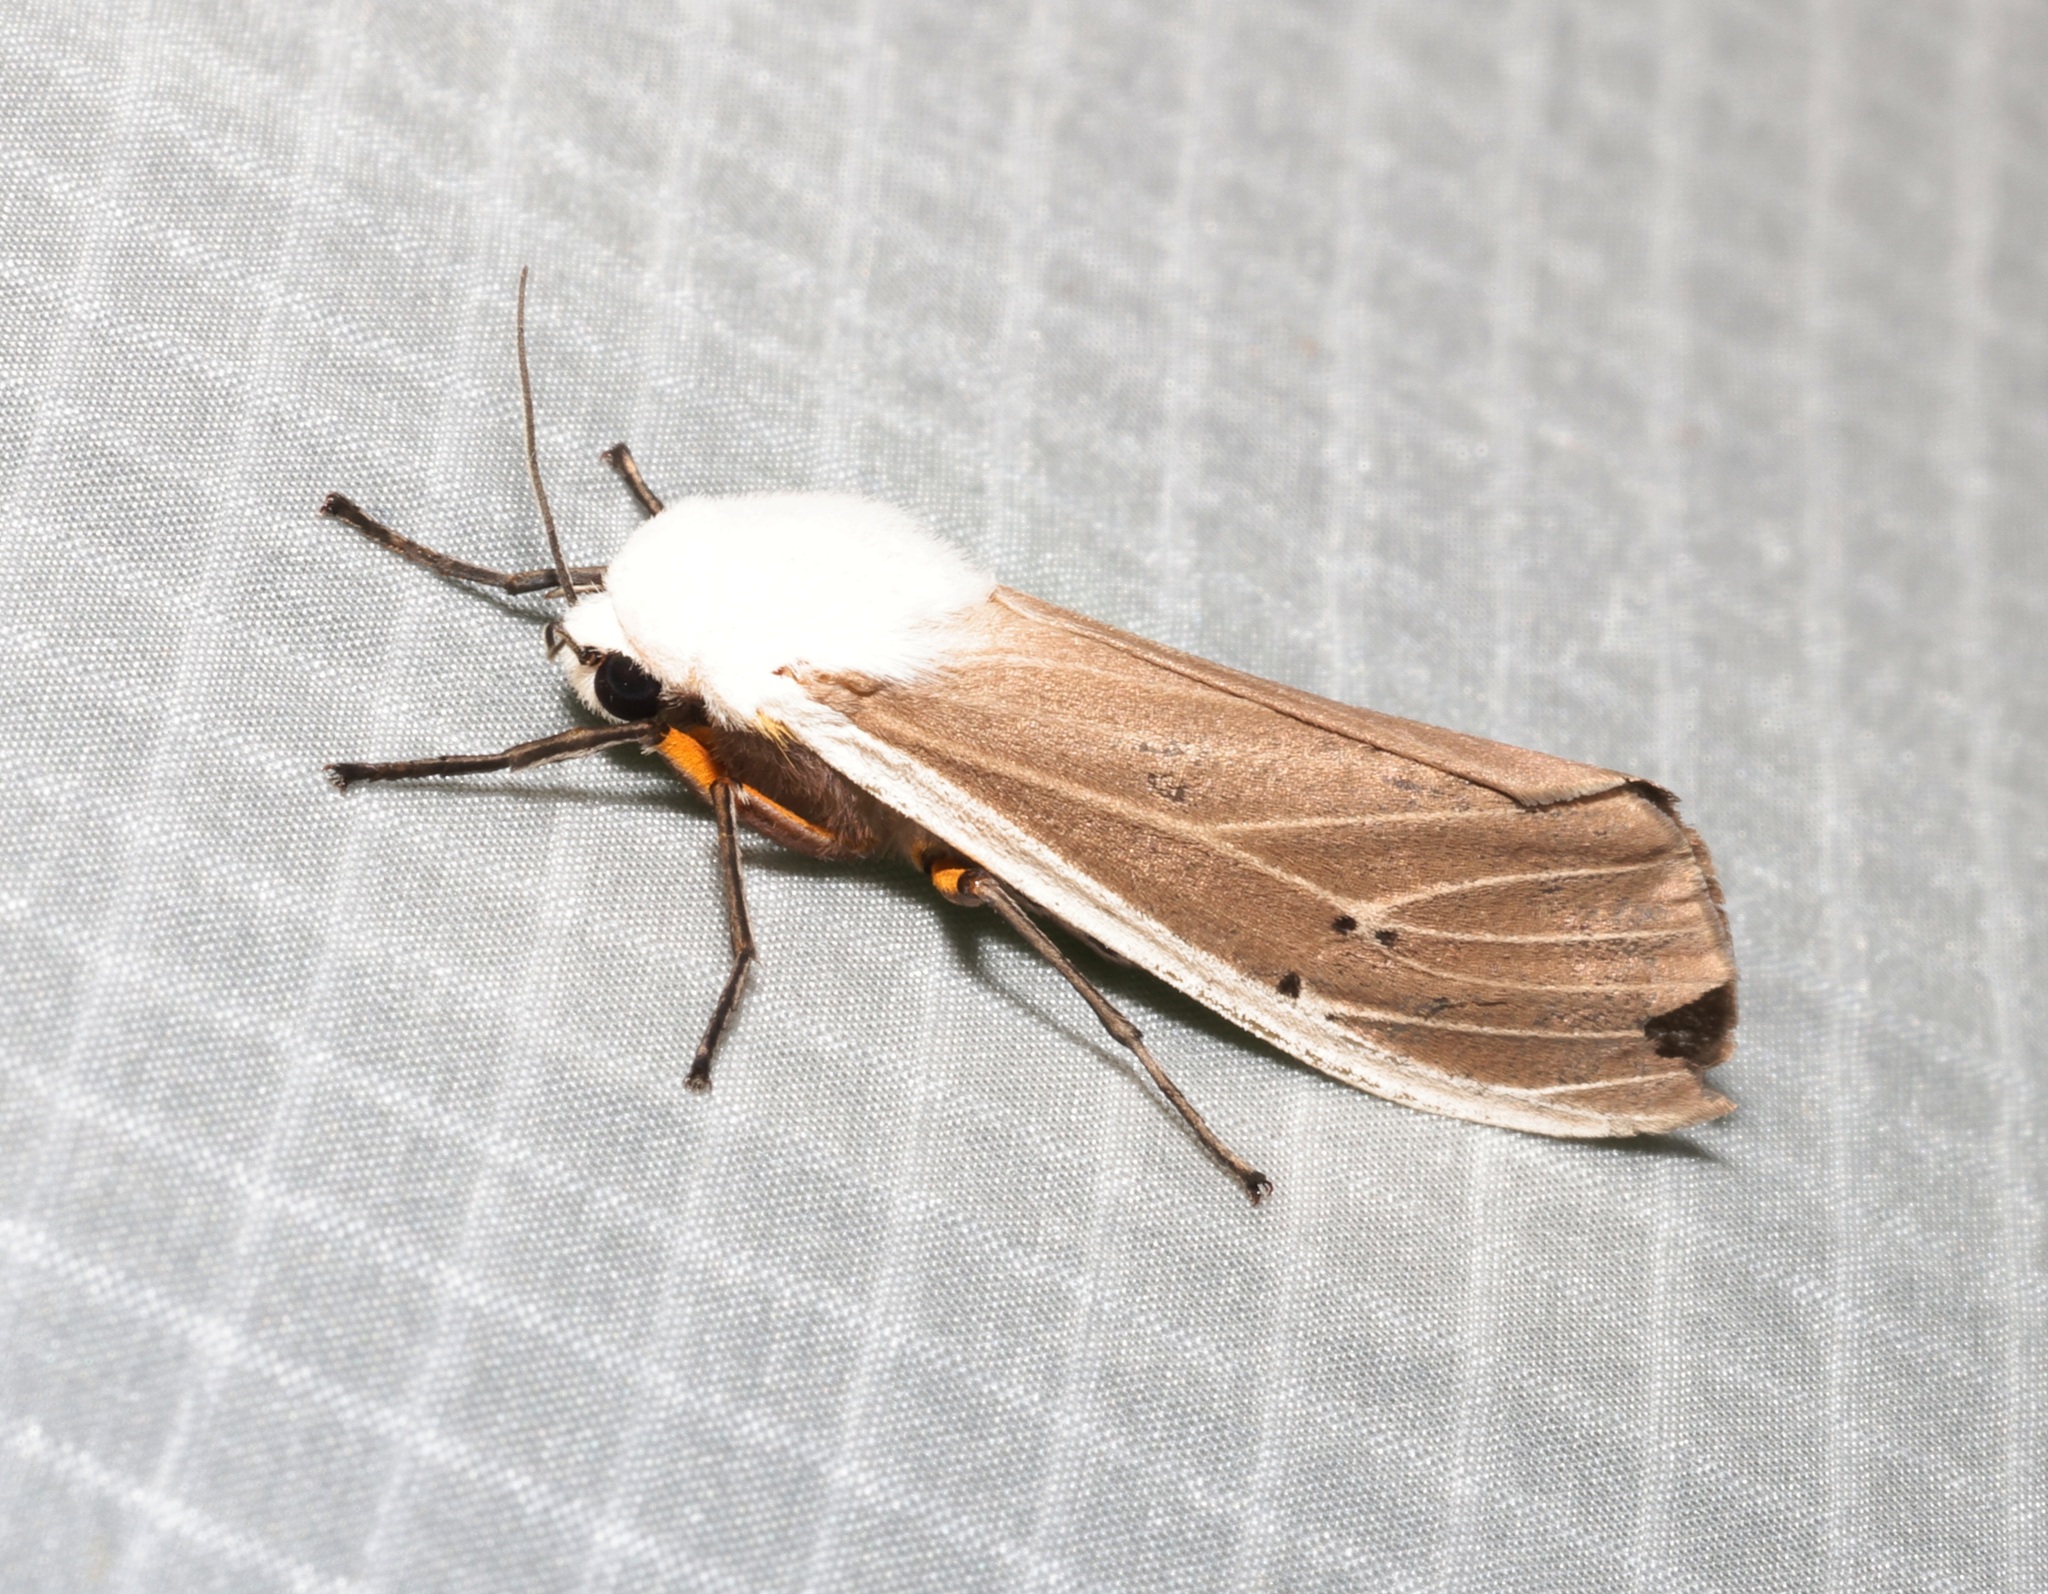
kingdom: Animalia
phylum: Arthropoda
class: Insecta
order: Lepidoptera
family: Erebidae
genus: Creatonotos
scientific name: Creatonotos transiens
